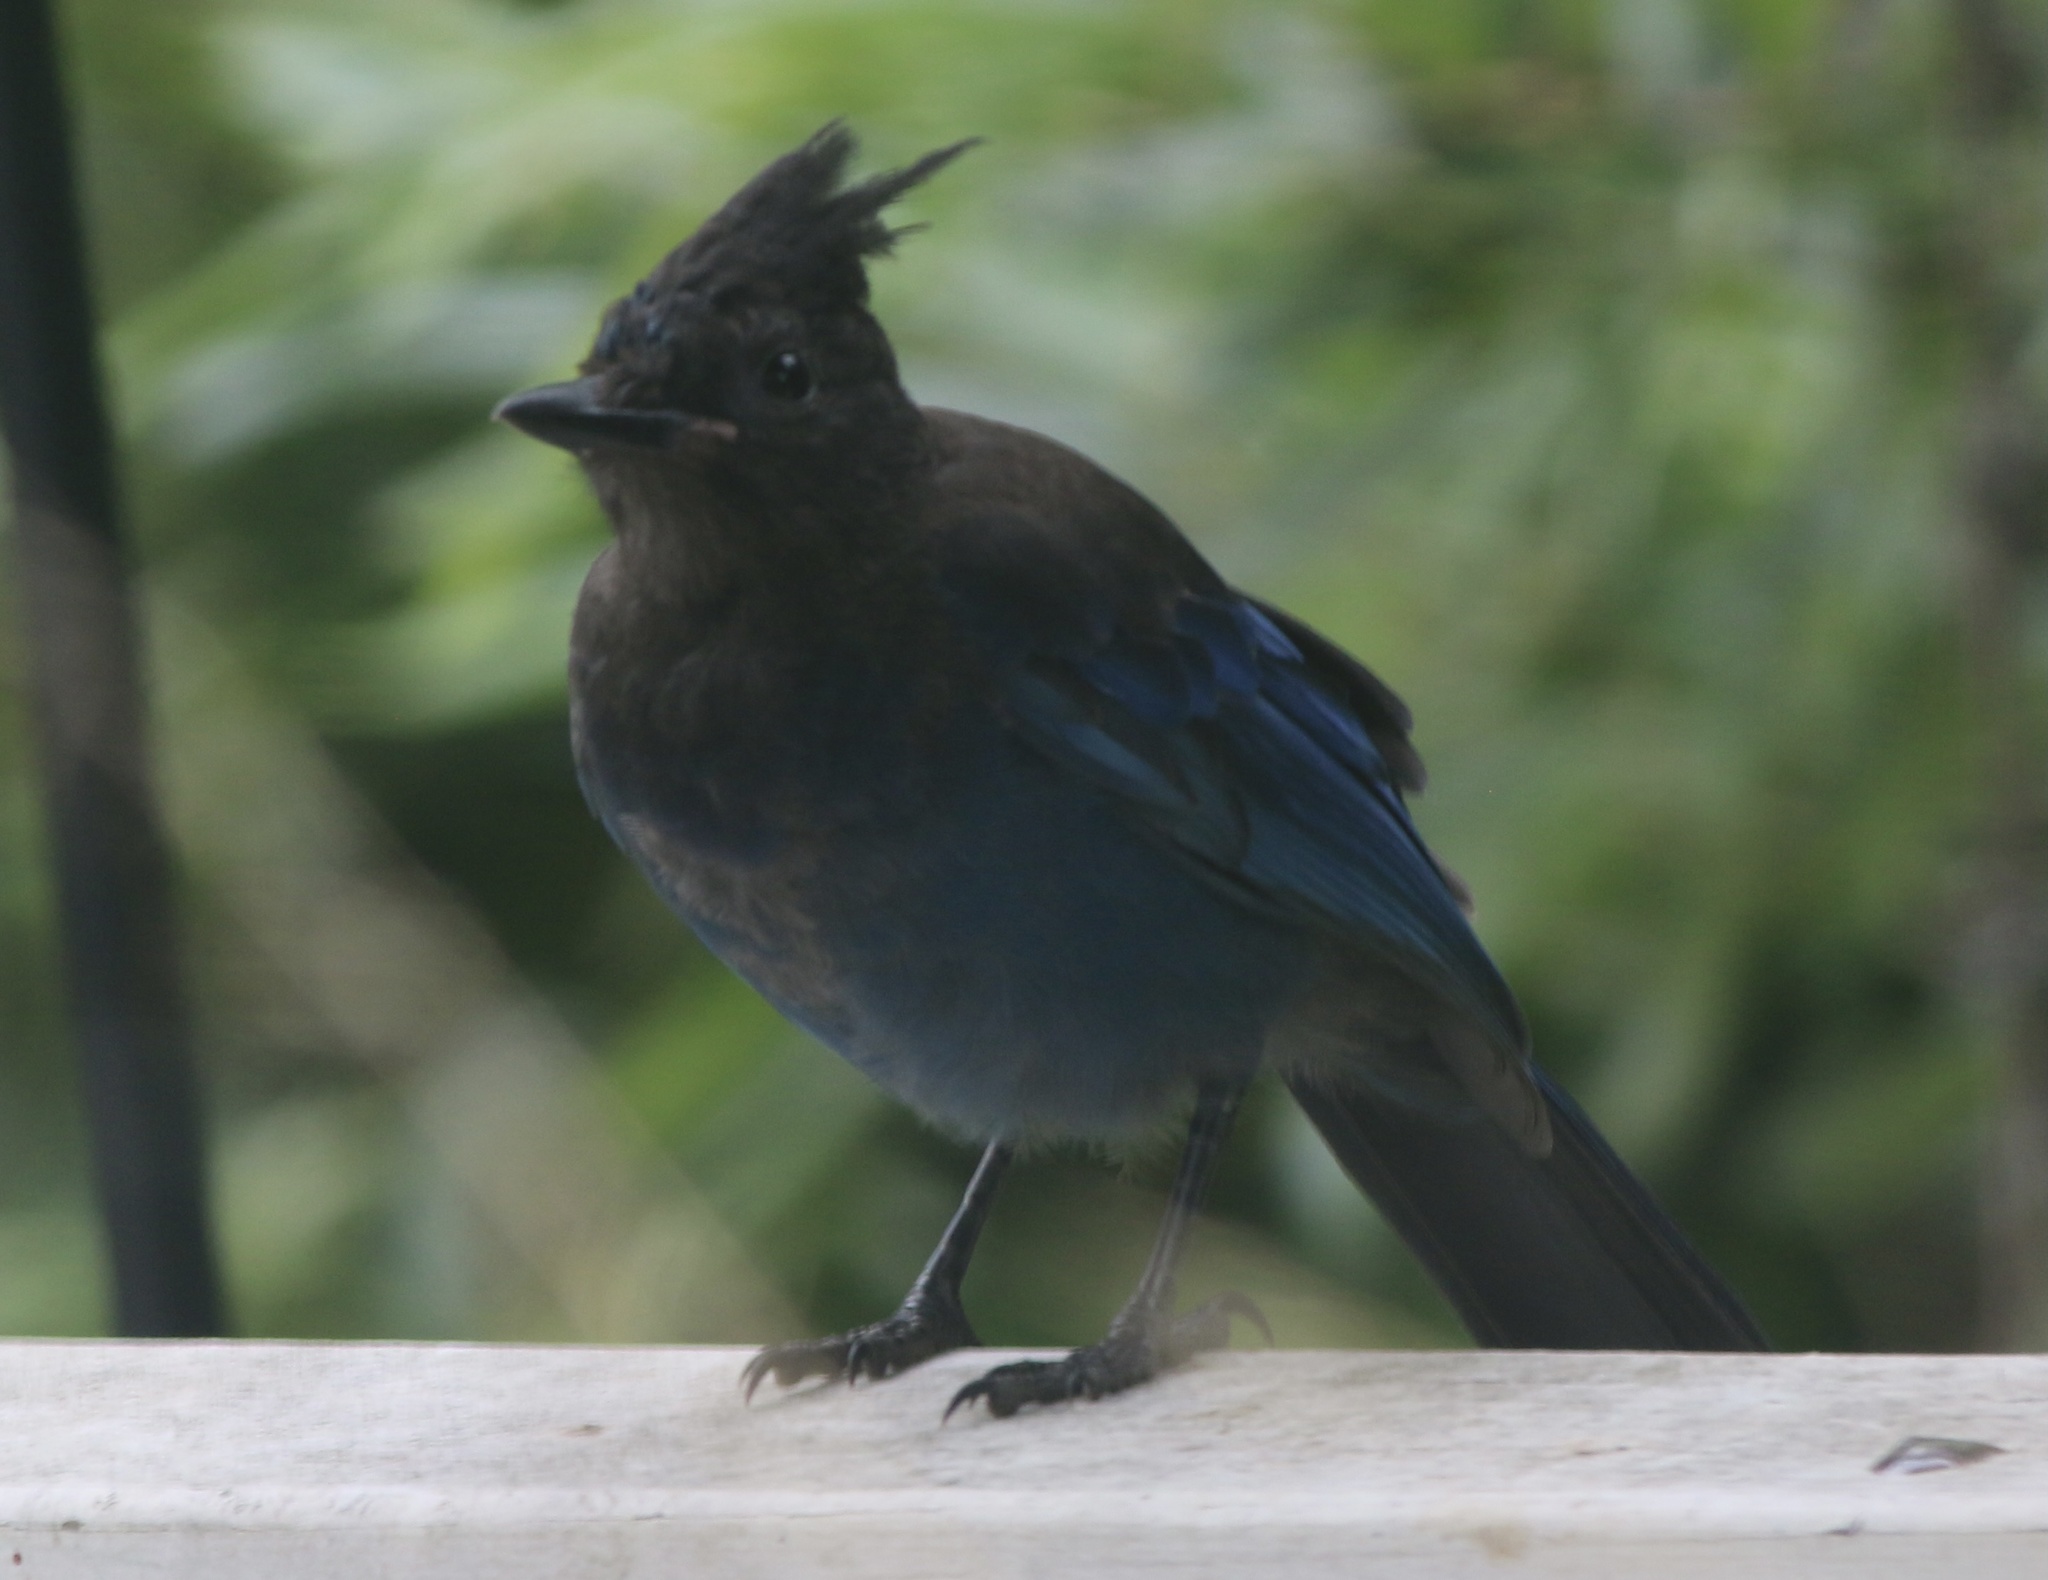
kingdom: Animalia
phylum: Chordata
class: Aves
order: Passeriformes
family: Corvidae
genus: Cyanocitta
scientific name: Cyanocitta stelleri
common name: Steller's jay
